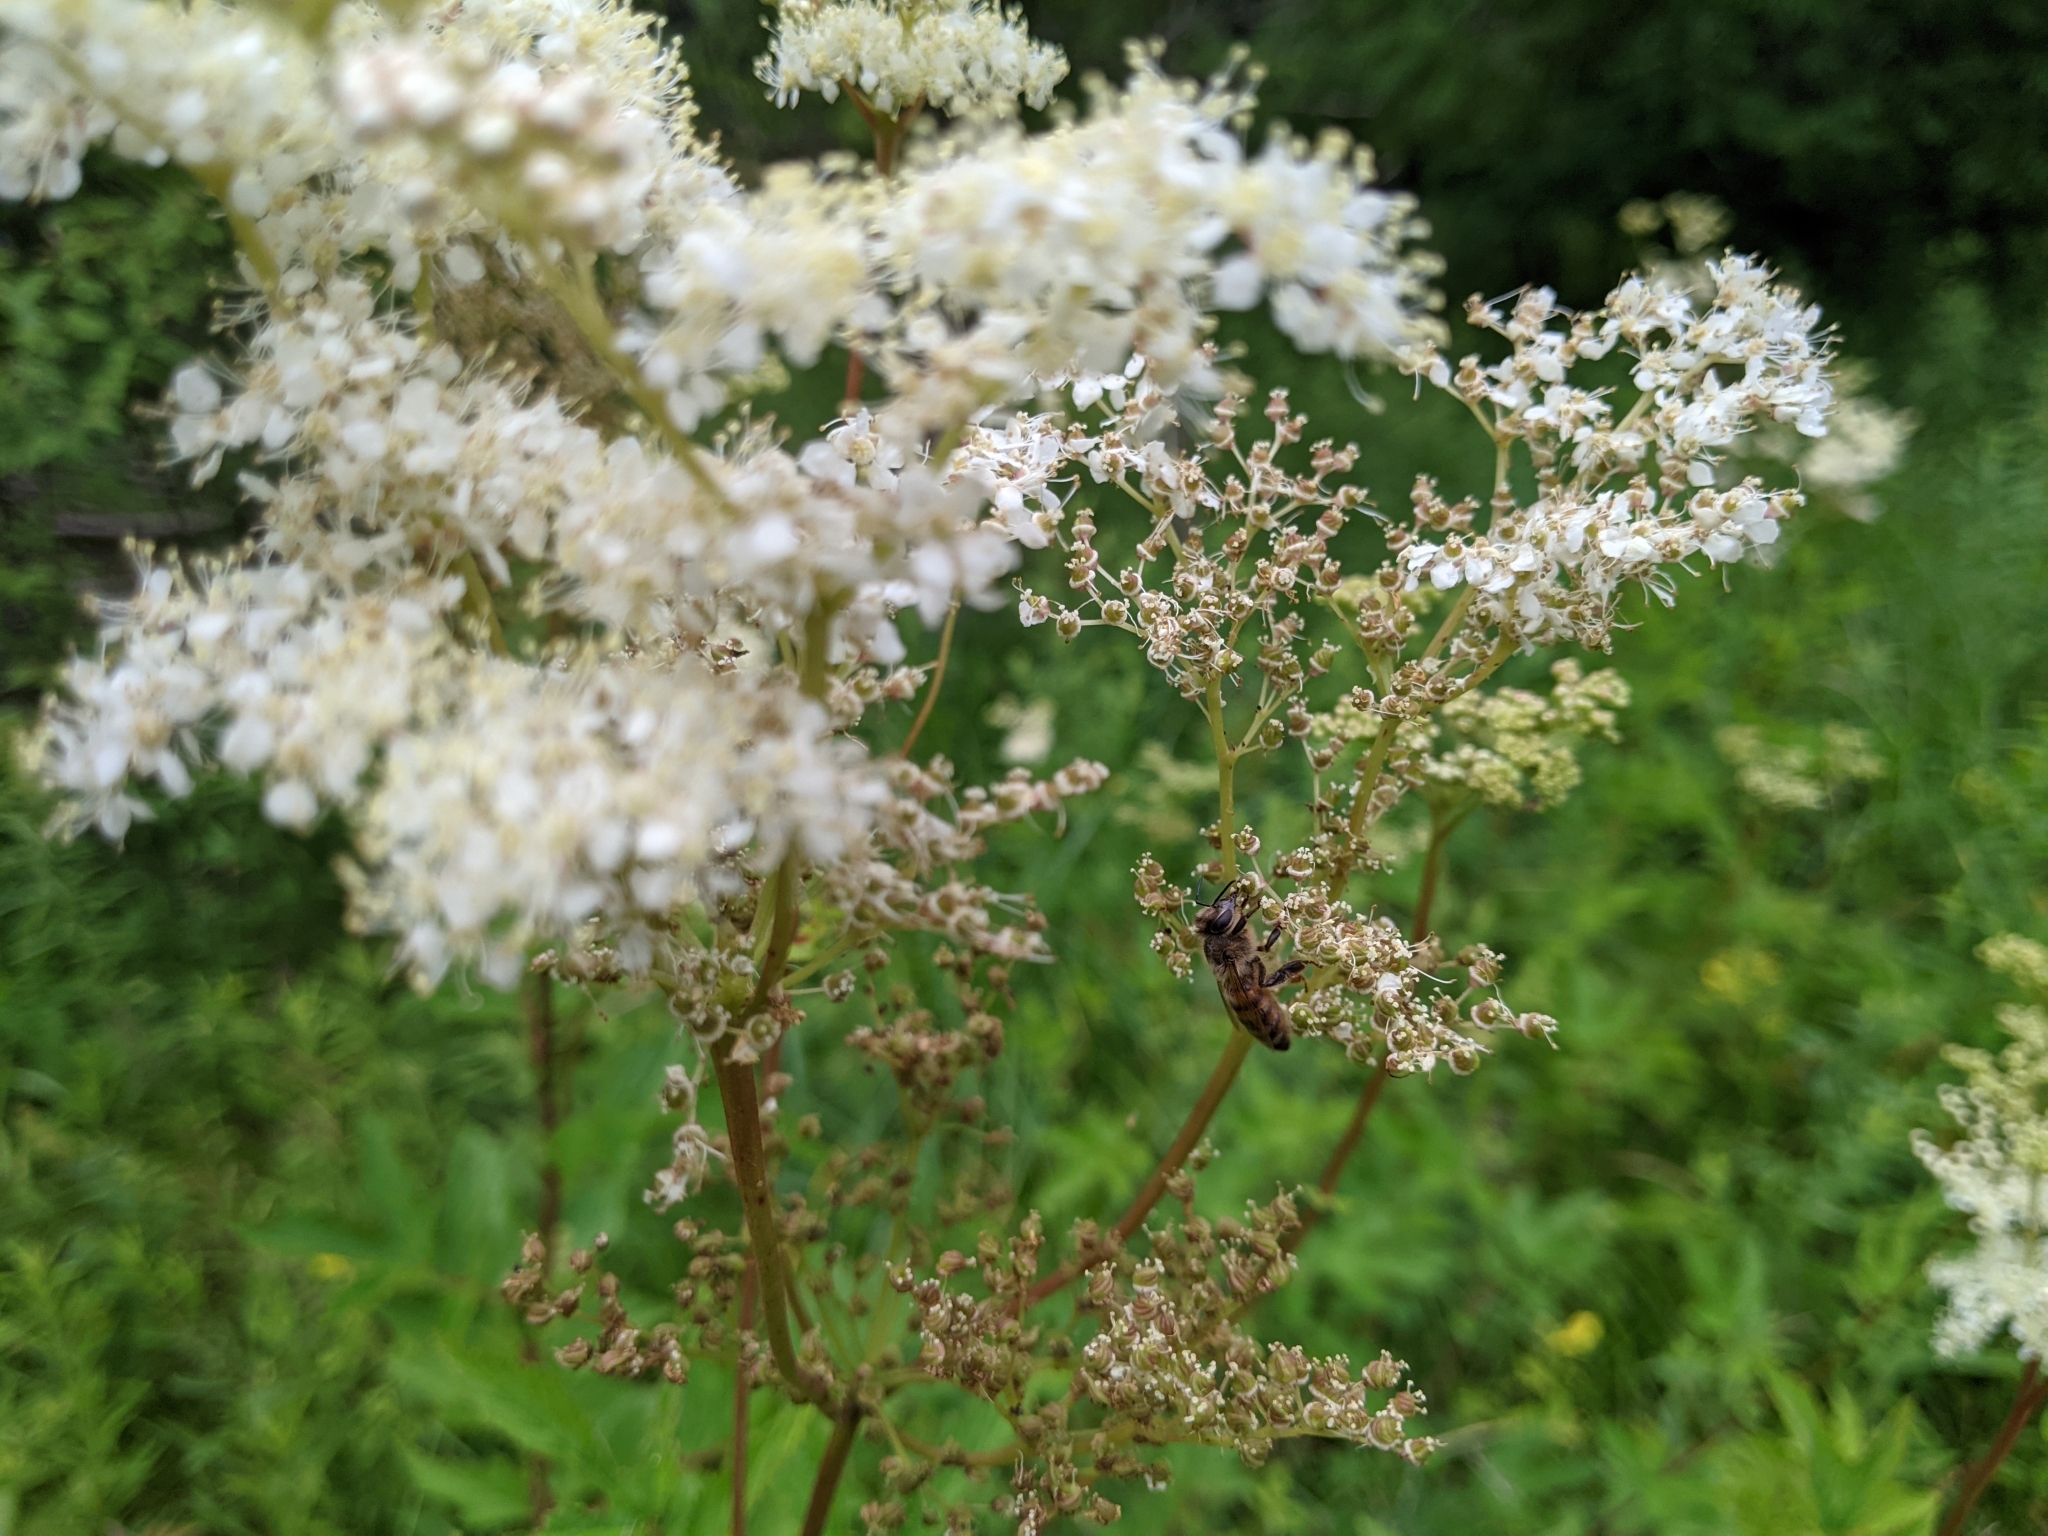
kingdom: Animalia
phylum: Arthropoda
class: Insecta
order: Hymenoptera
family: Apidae
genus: Apis
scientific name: Apis mellifera
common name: Honey bee
